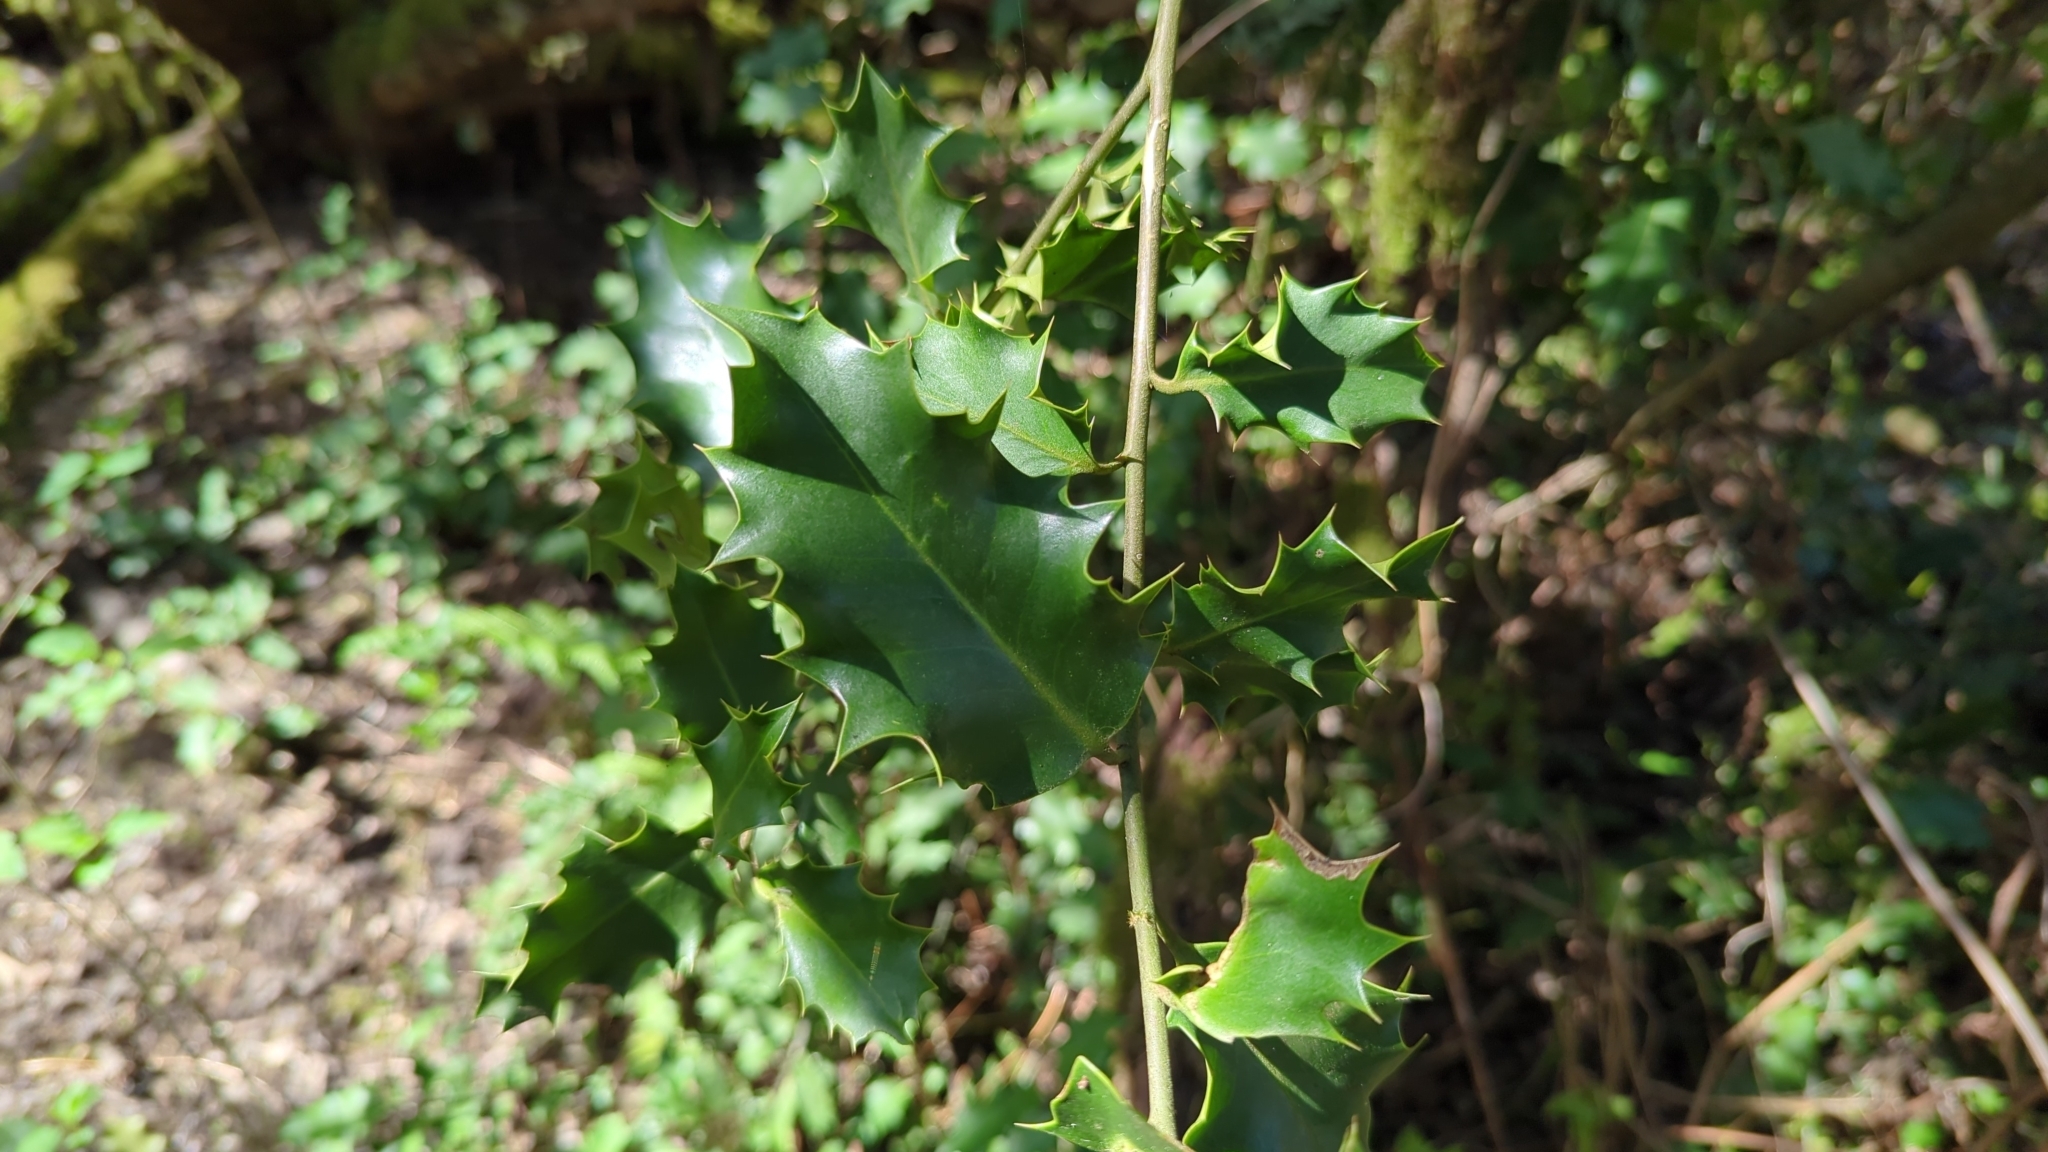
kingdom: Plantae
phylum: Tracheophyta
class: Magnoliopsida
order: Aquifoliales
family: Aquifoliaceae
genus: Ilex
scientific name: Ilex aquifolium
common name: English holly
